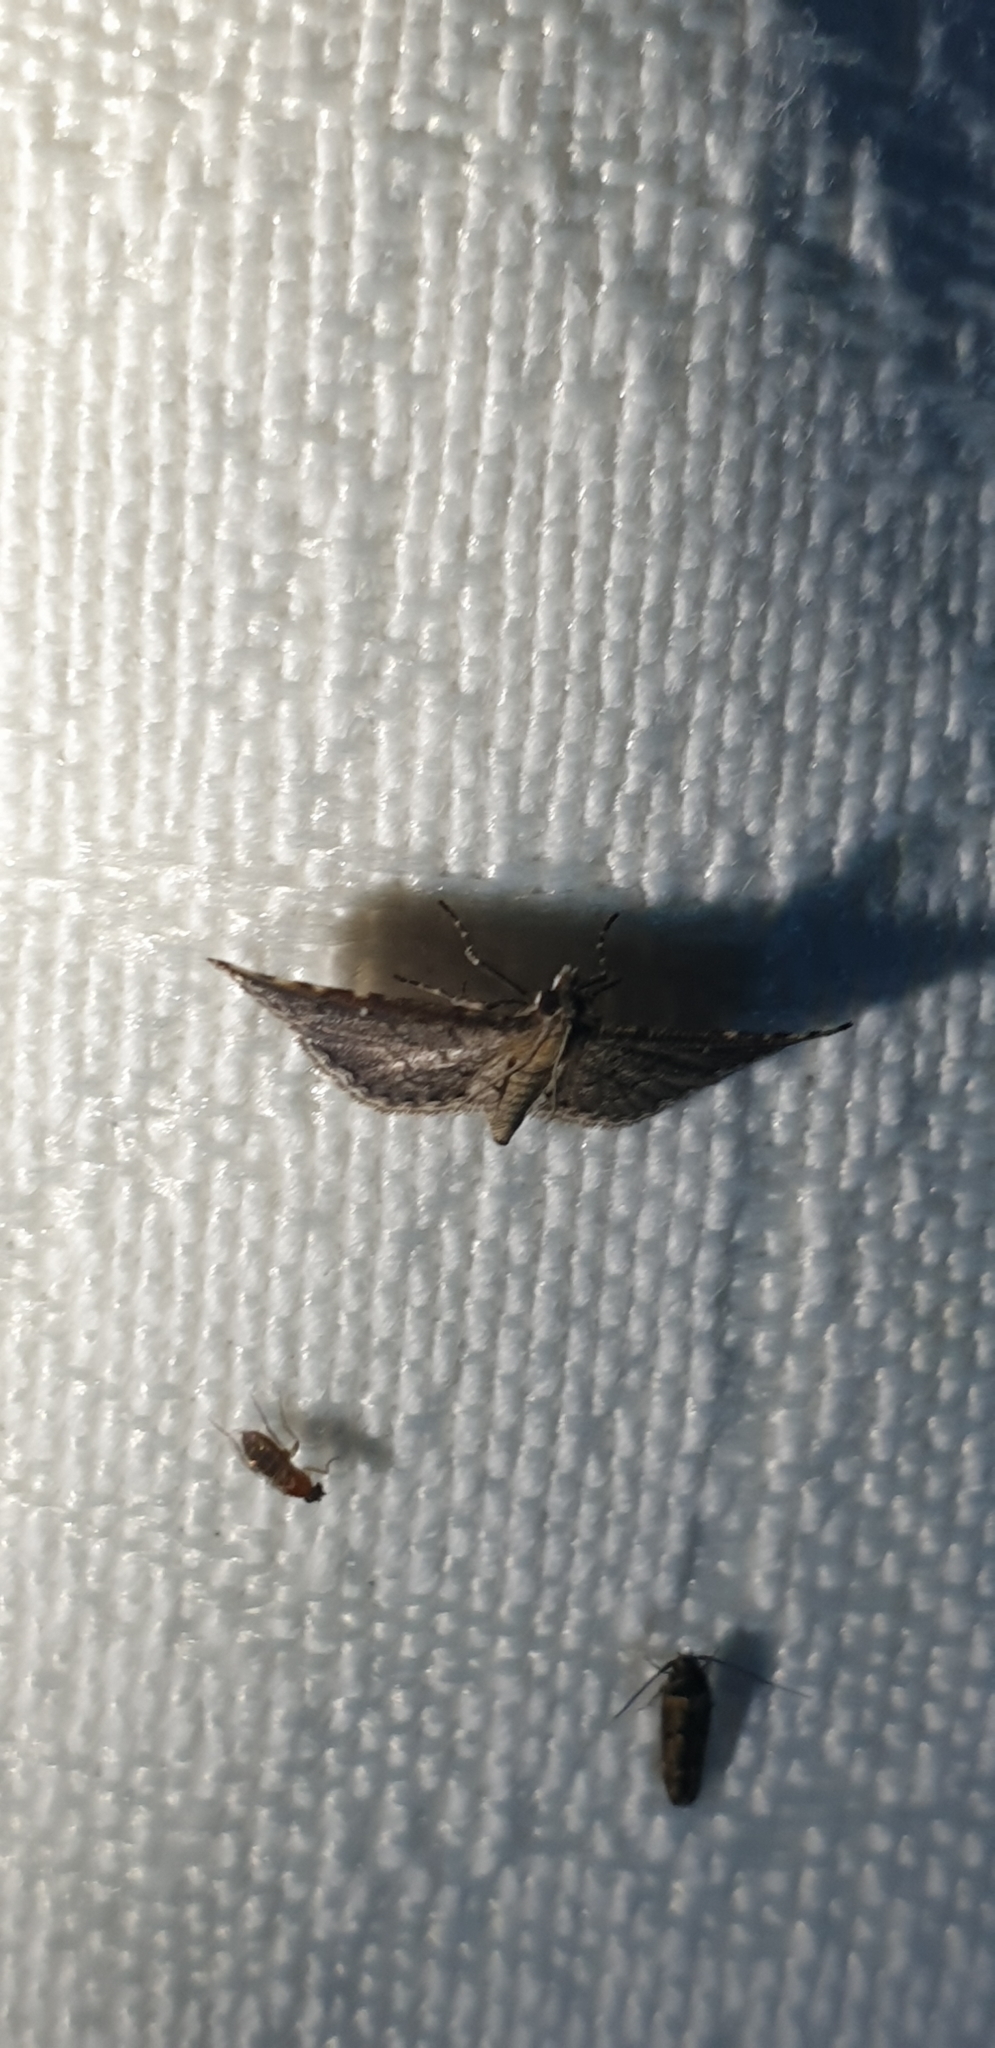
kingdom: Animalia
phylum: Arthropoda
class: Insecta
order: Lepidoptera
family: Crambidae
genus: Metasia
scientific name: Metasia capnochroa
